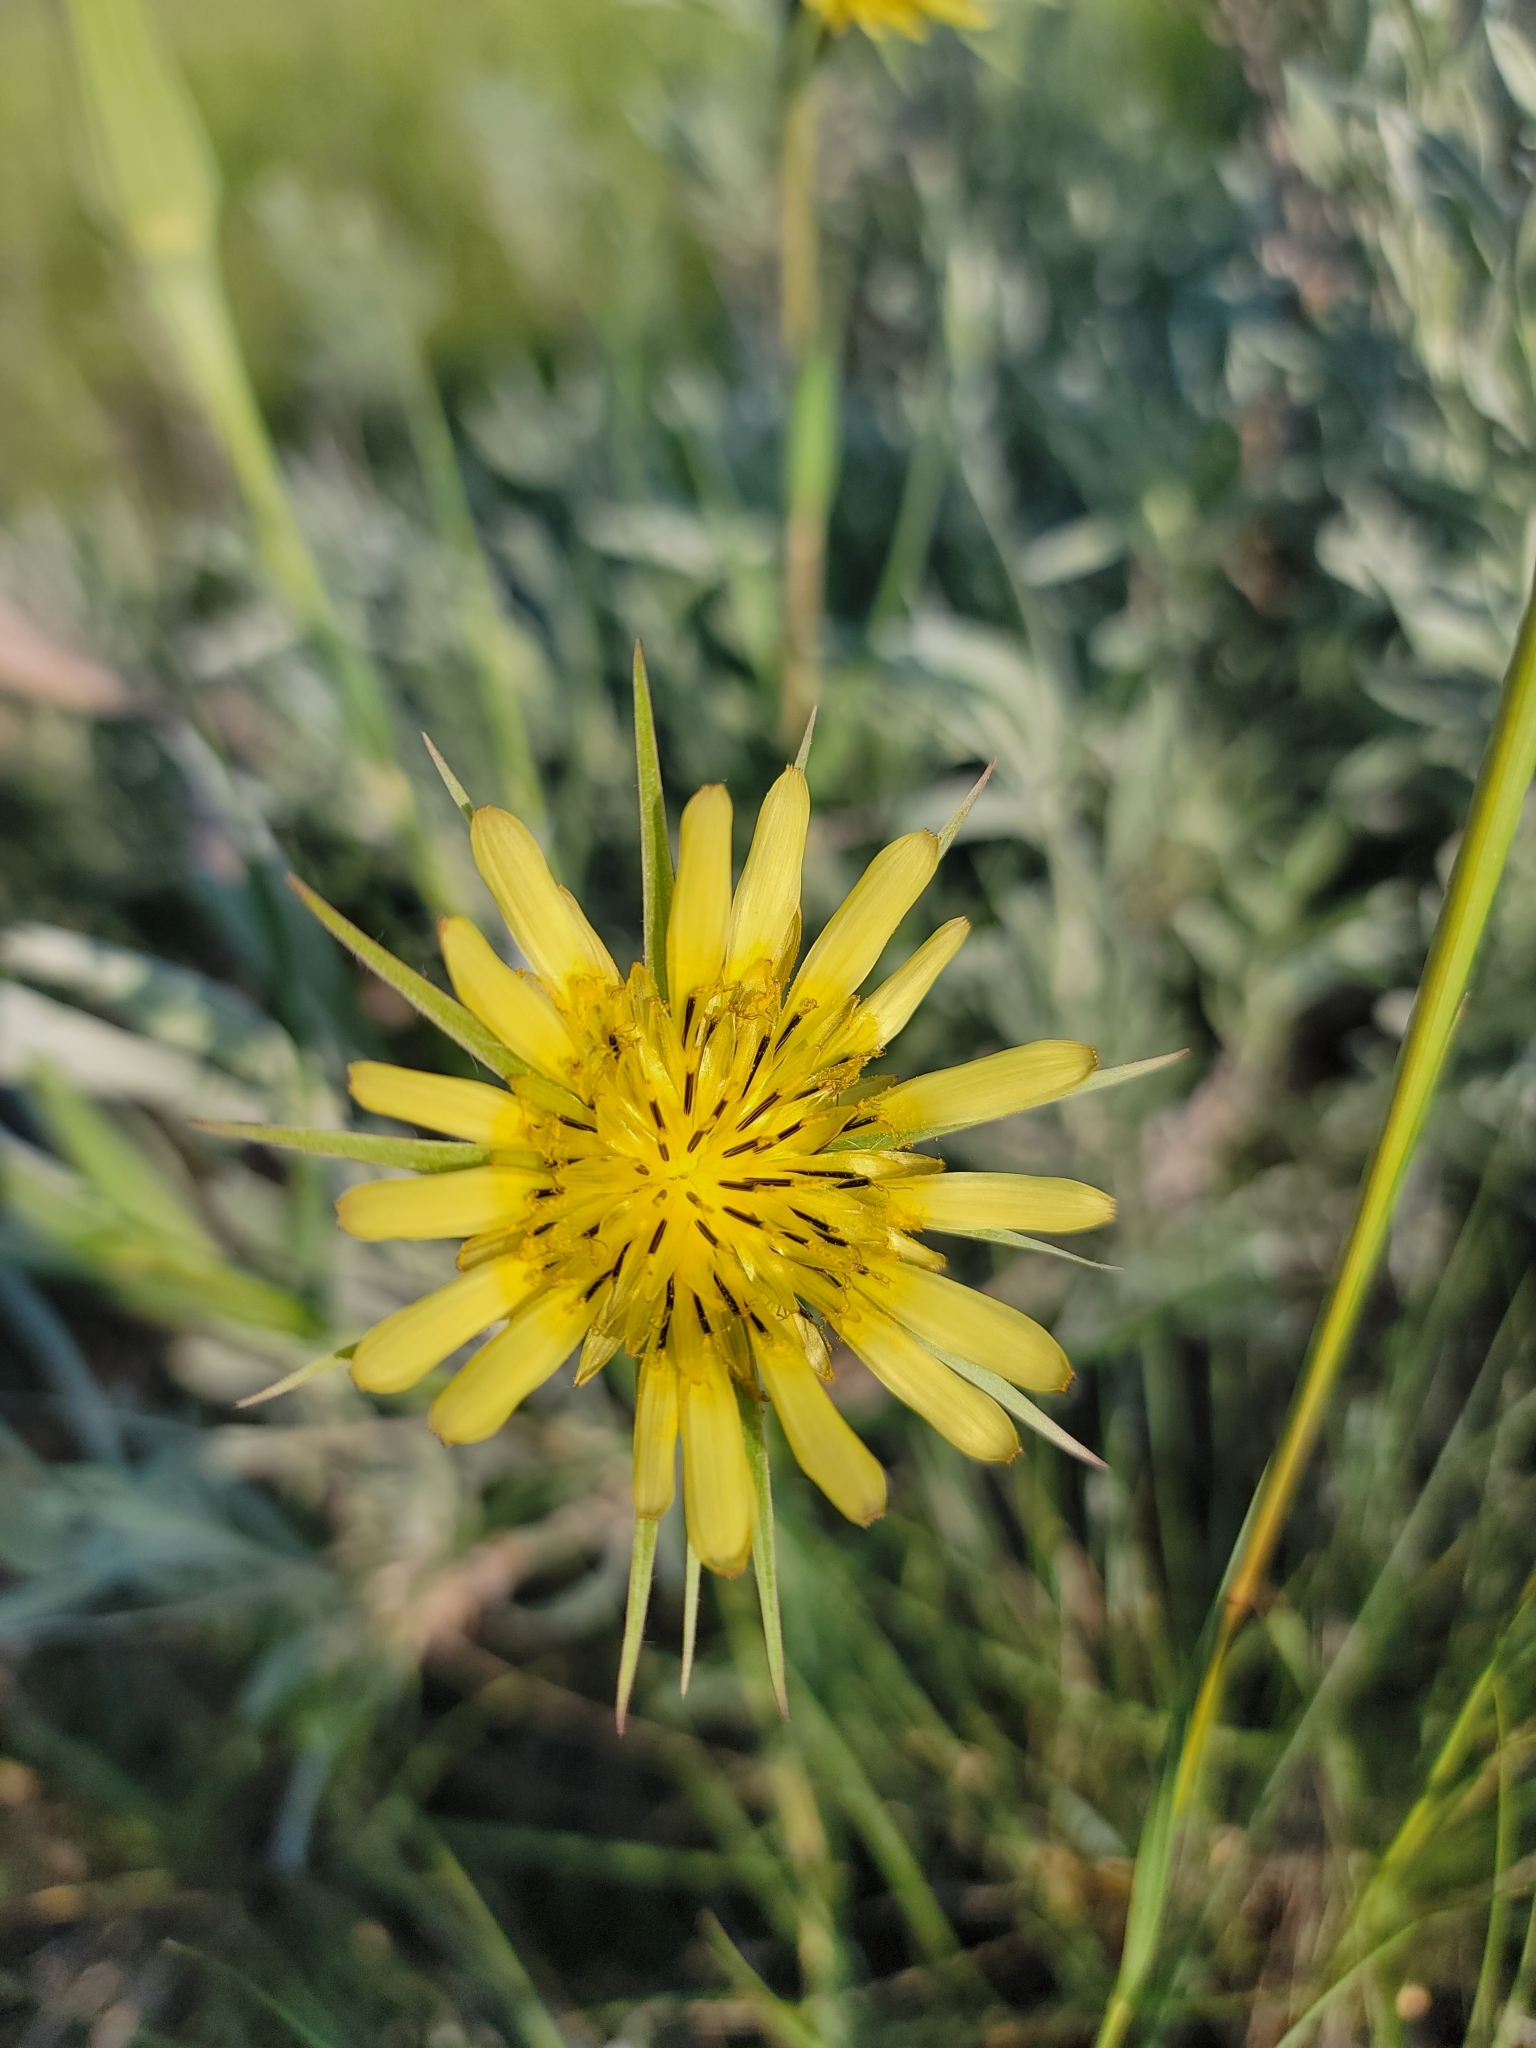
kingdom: Plantae
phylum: Tracheophyta
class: Magnoliopsida
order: Asterales
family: Asteraceae
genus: Tragopogon
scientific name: Tragopogon dubius
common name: Yellow salsify
